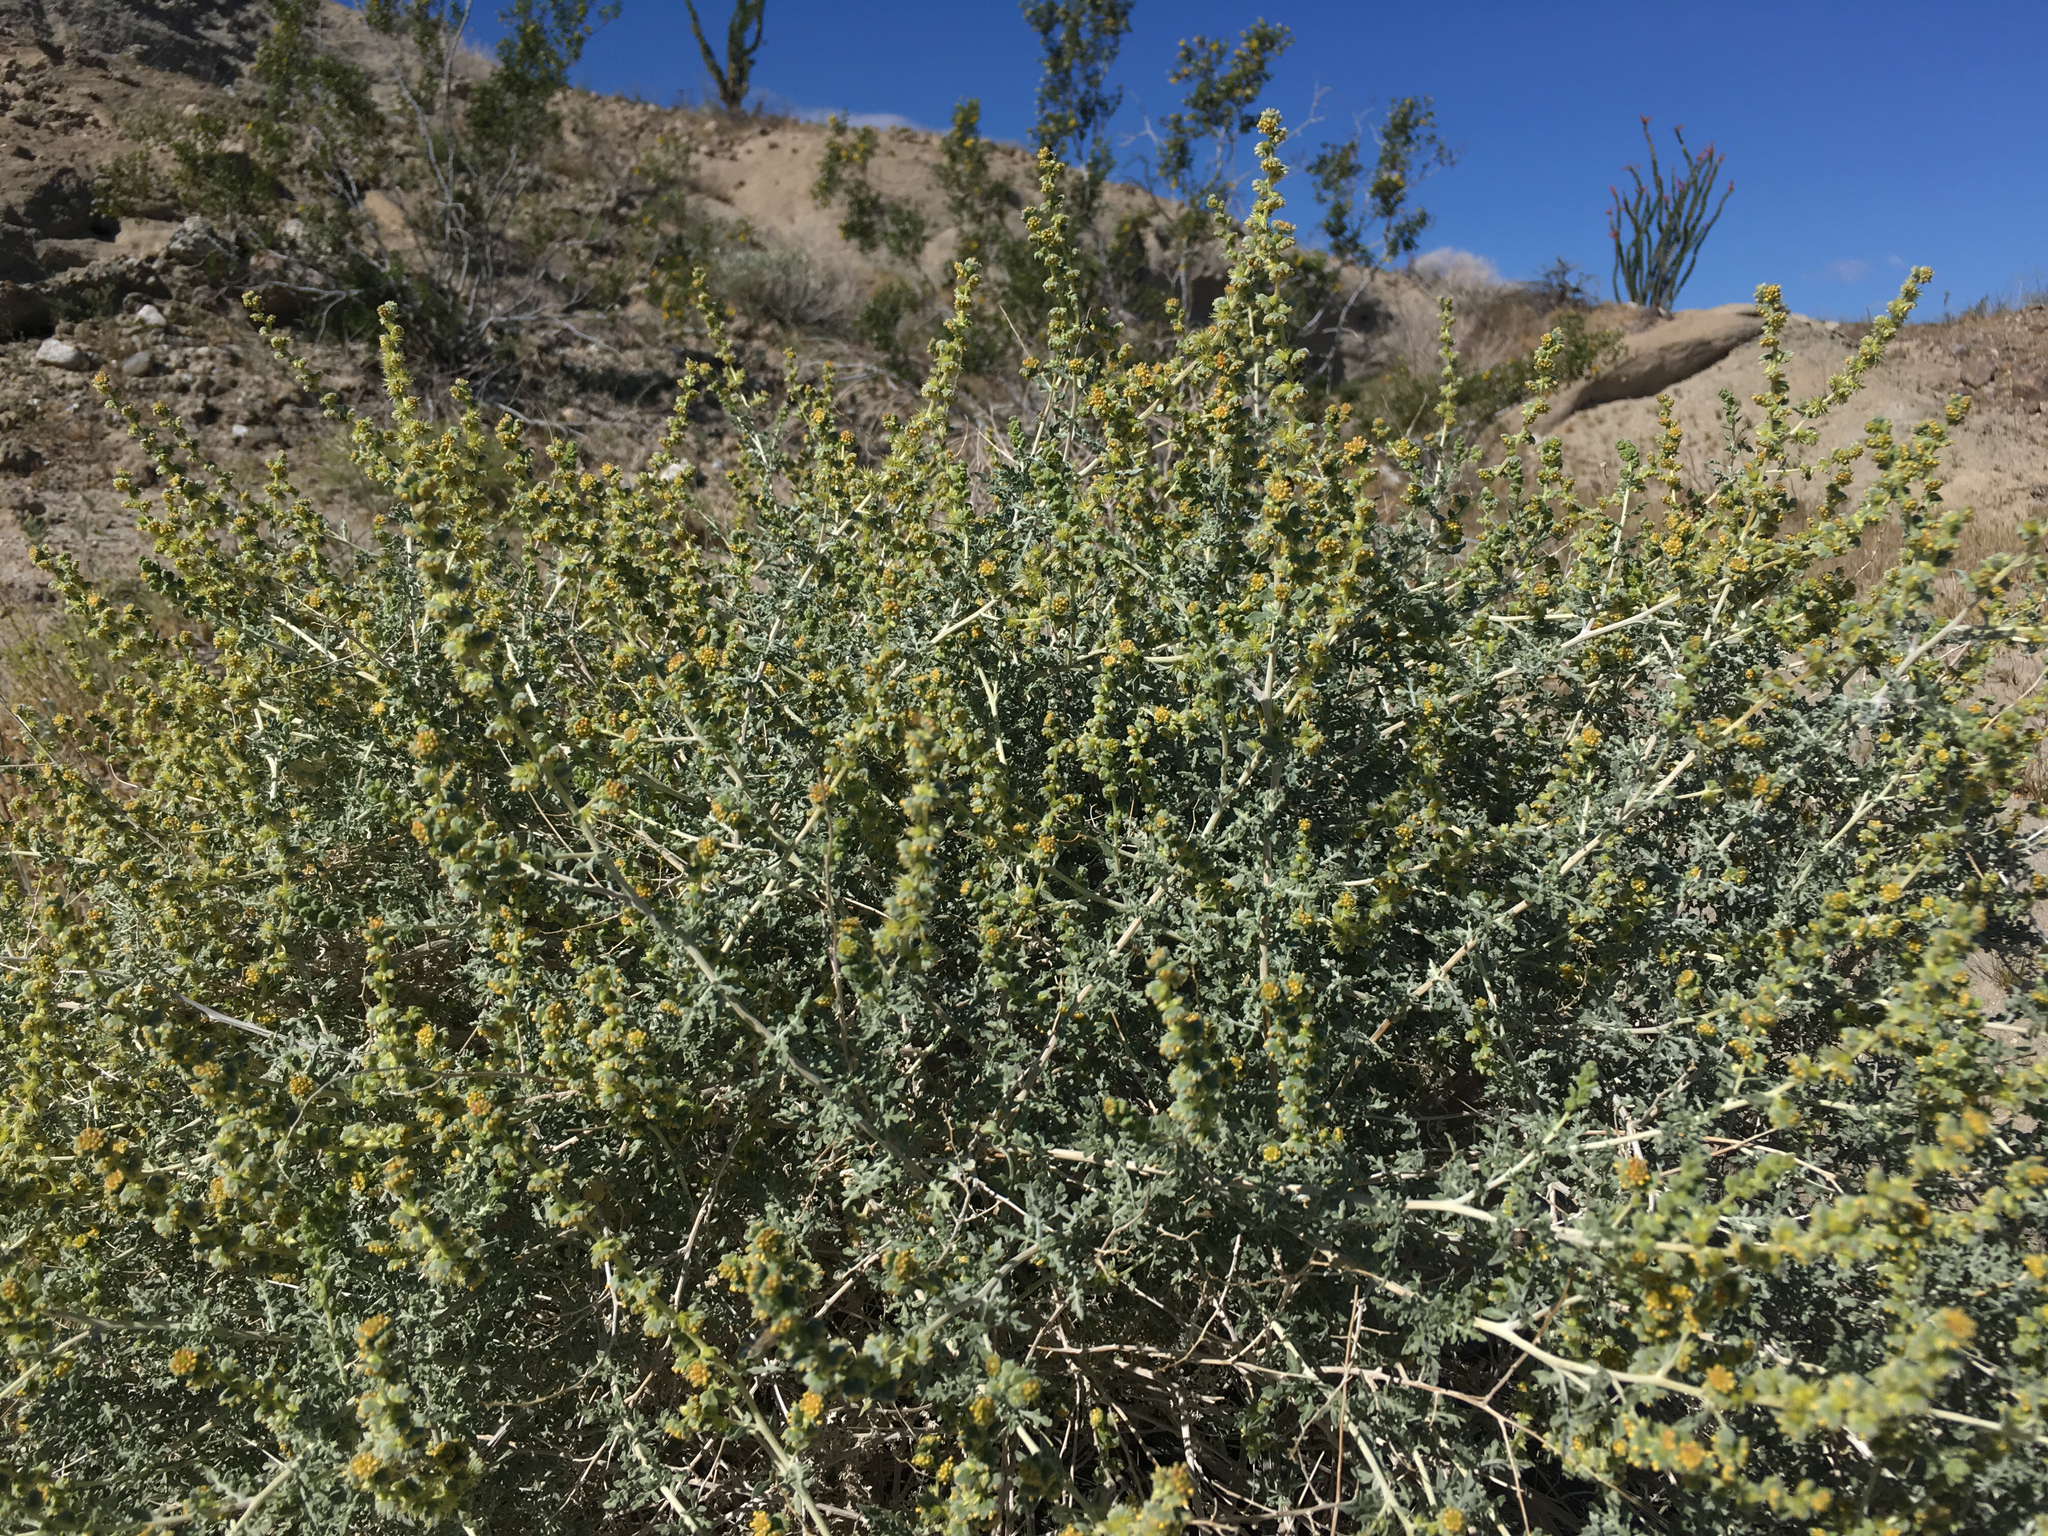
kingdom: Plantae
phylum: Tracheophyta
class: Magnoliopsida
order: Asterales
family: Asteraceae
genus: Ambrosia
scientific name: Ambrosia dumosa
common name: Bur-sage
